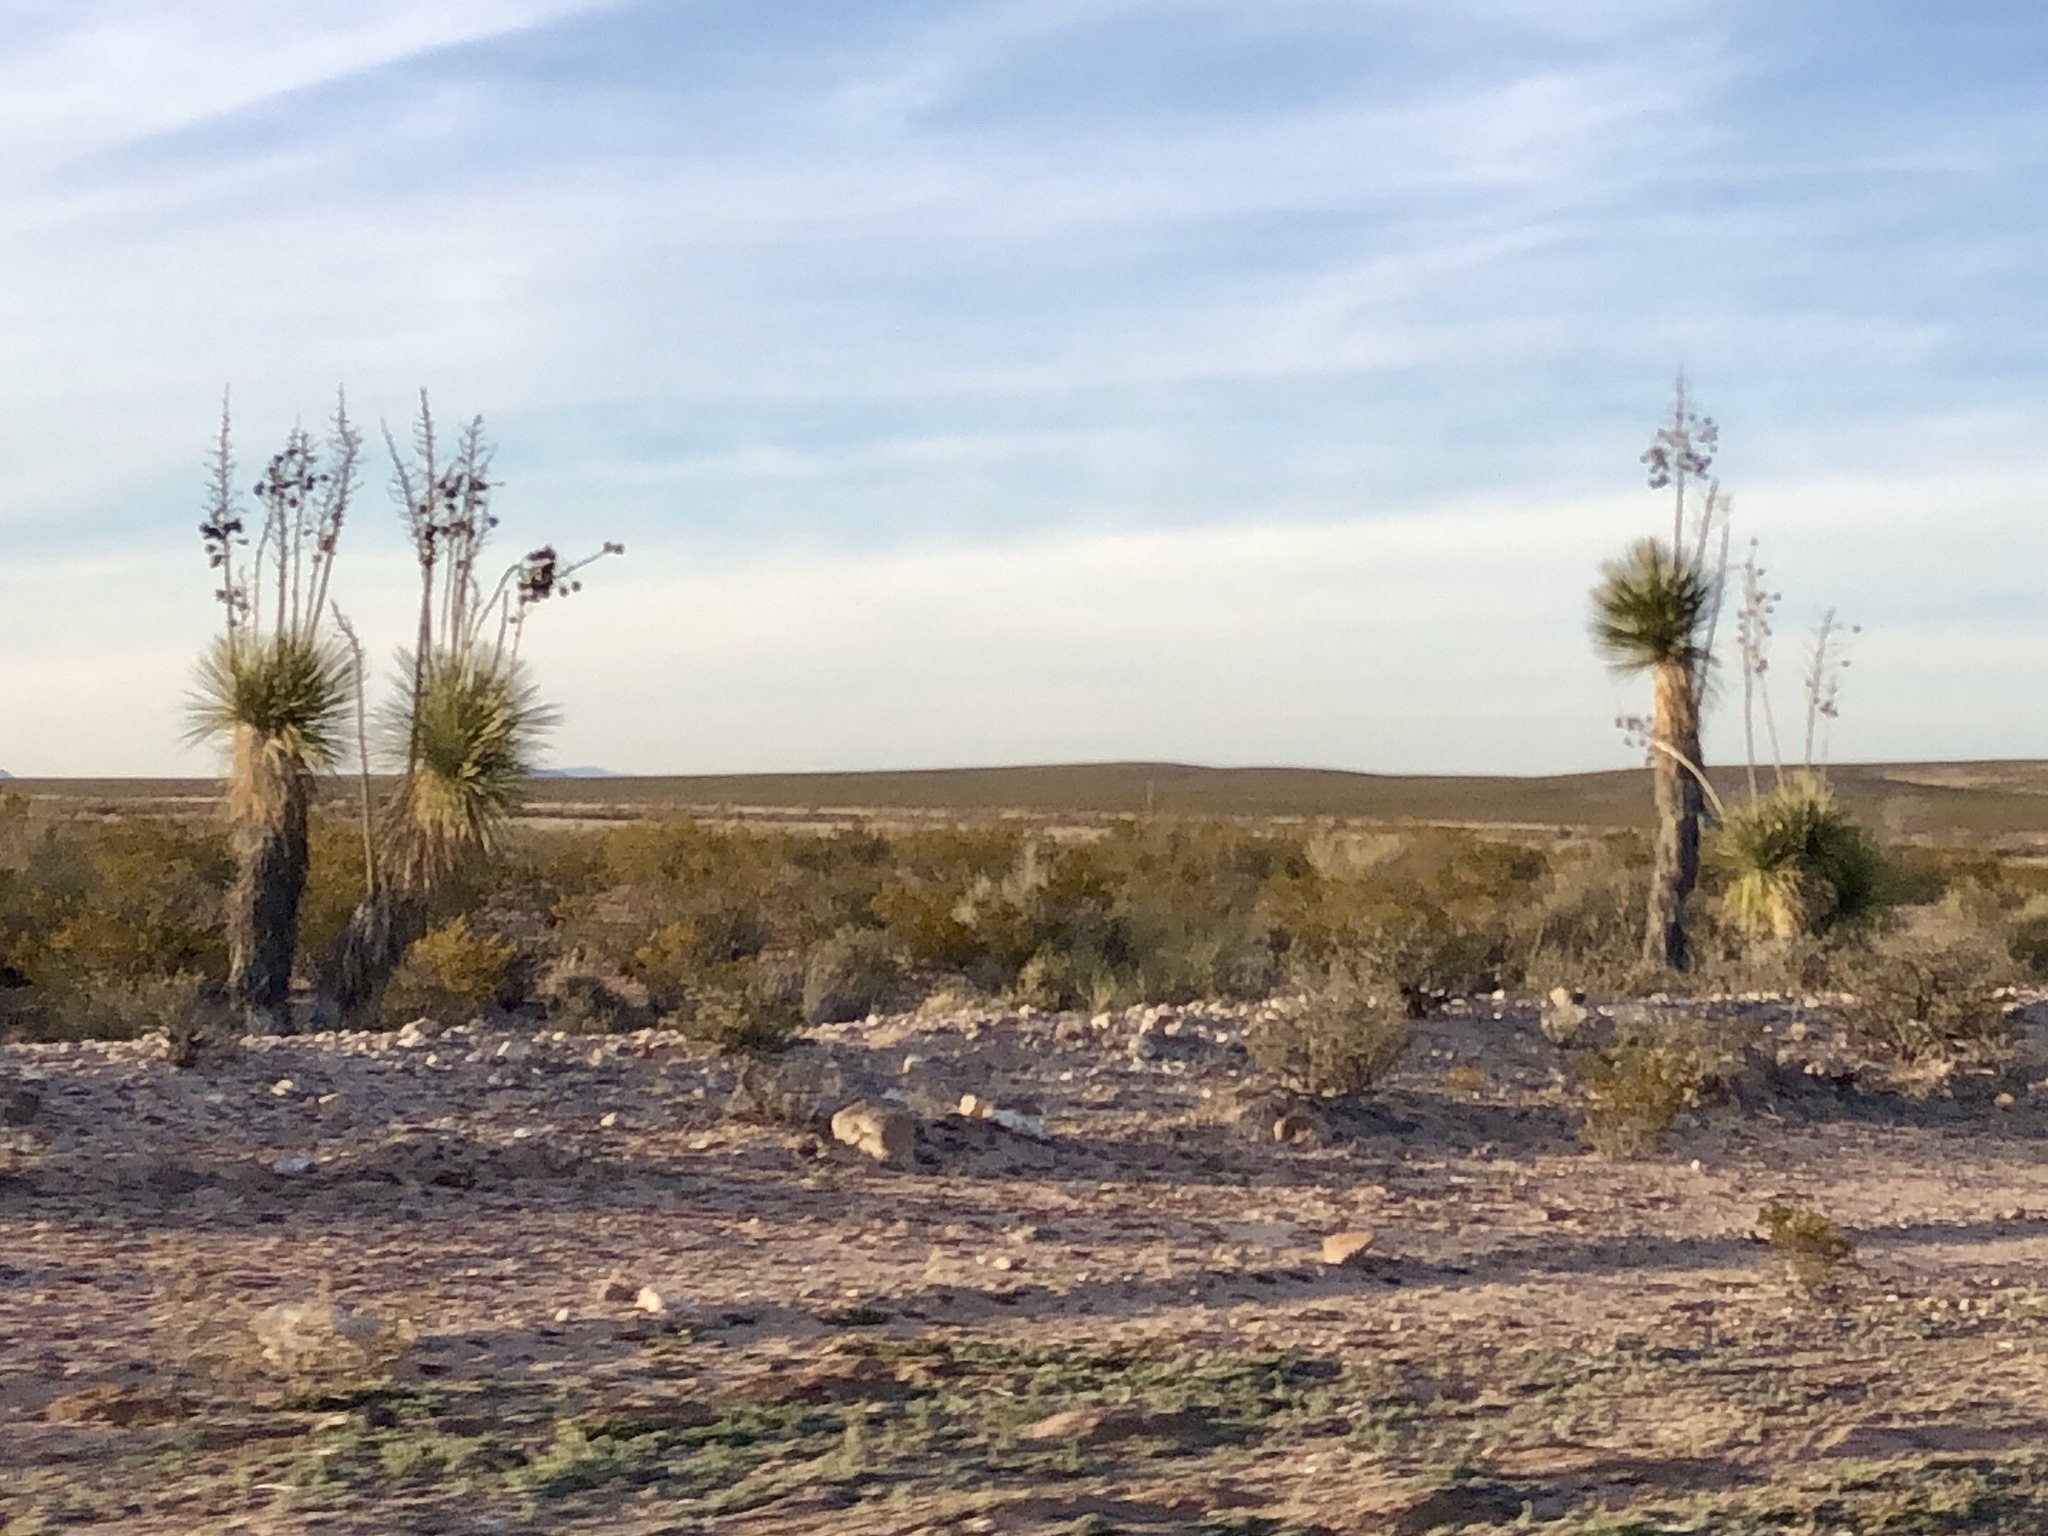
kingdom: Plantae
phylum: Tracheophyta
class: Liliopsida
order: Asparagales
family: Asparagaceae
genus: Yucca
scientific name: Yucca elata
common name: Palmella
